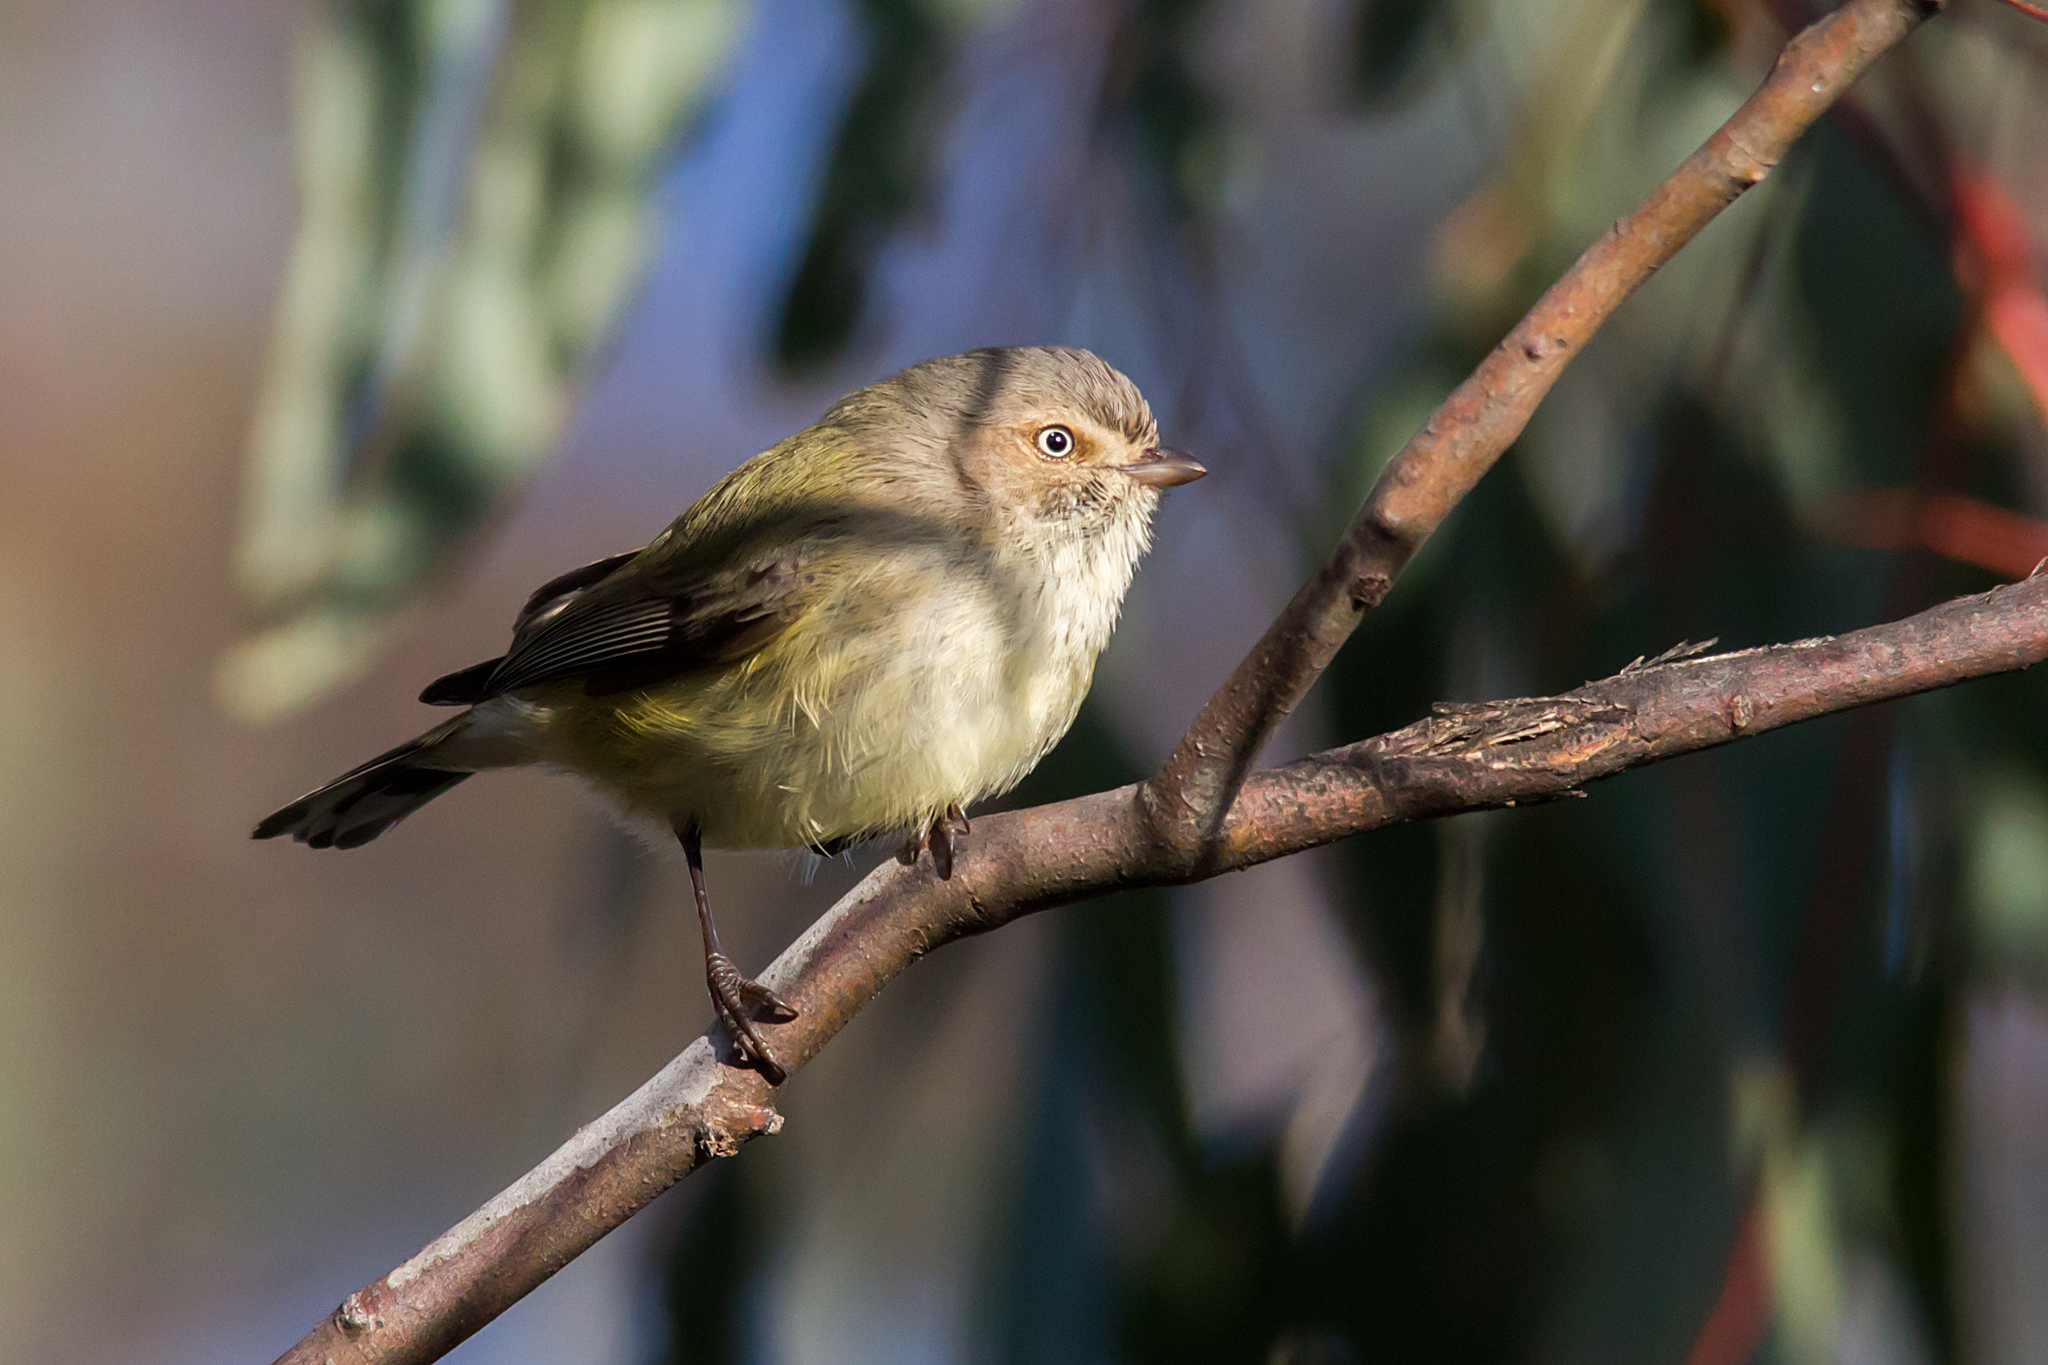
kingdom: Animalia
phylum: Chordata
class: Aves
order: Passeriformes
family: Acanthizidae
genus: Smicrornis
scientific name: Smicrornis brevirostris
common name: Weebill
